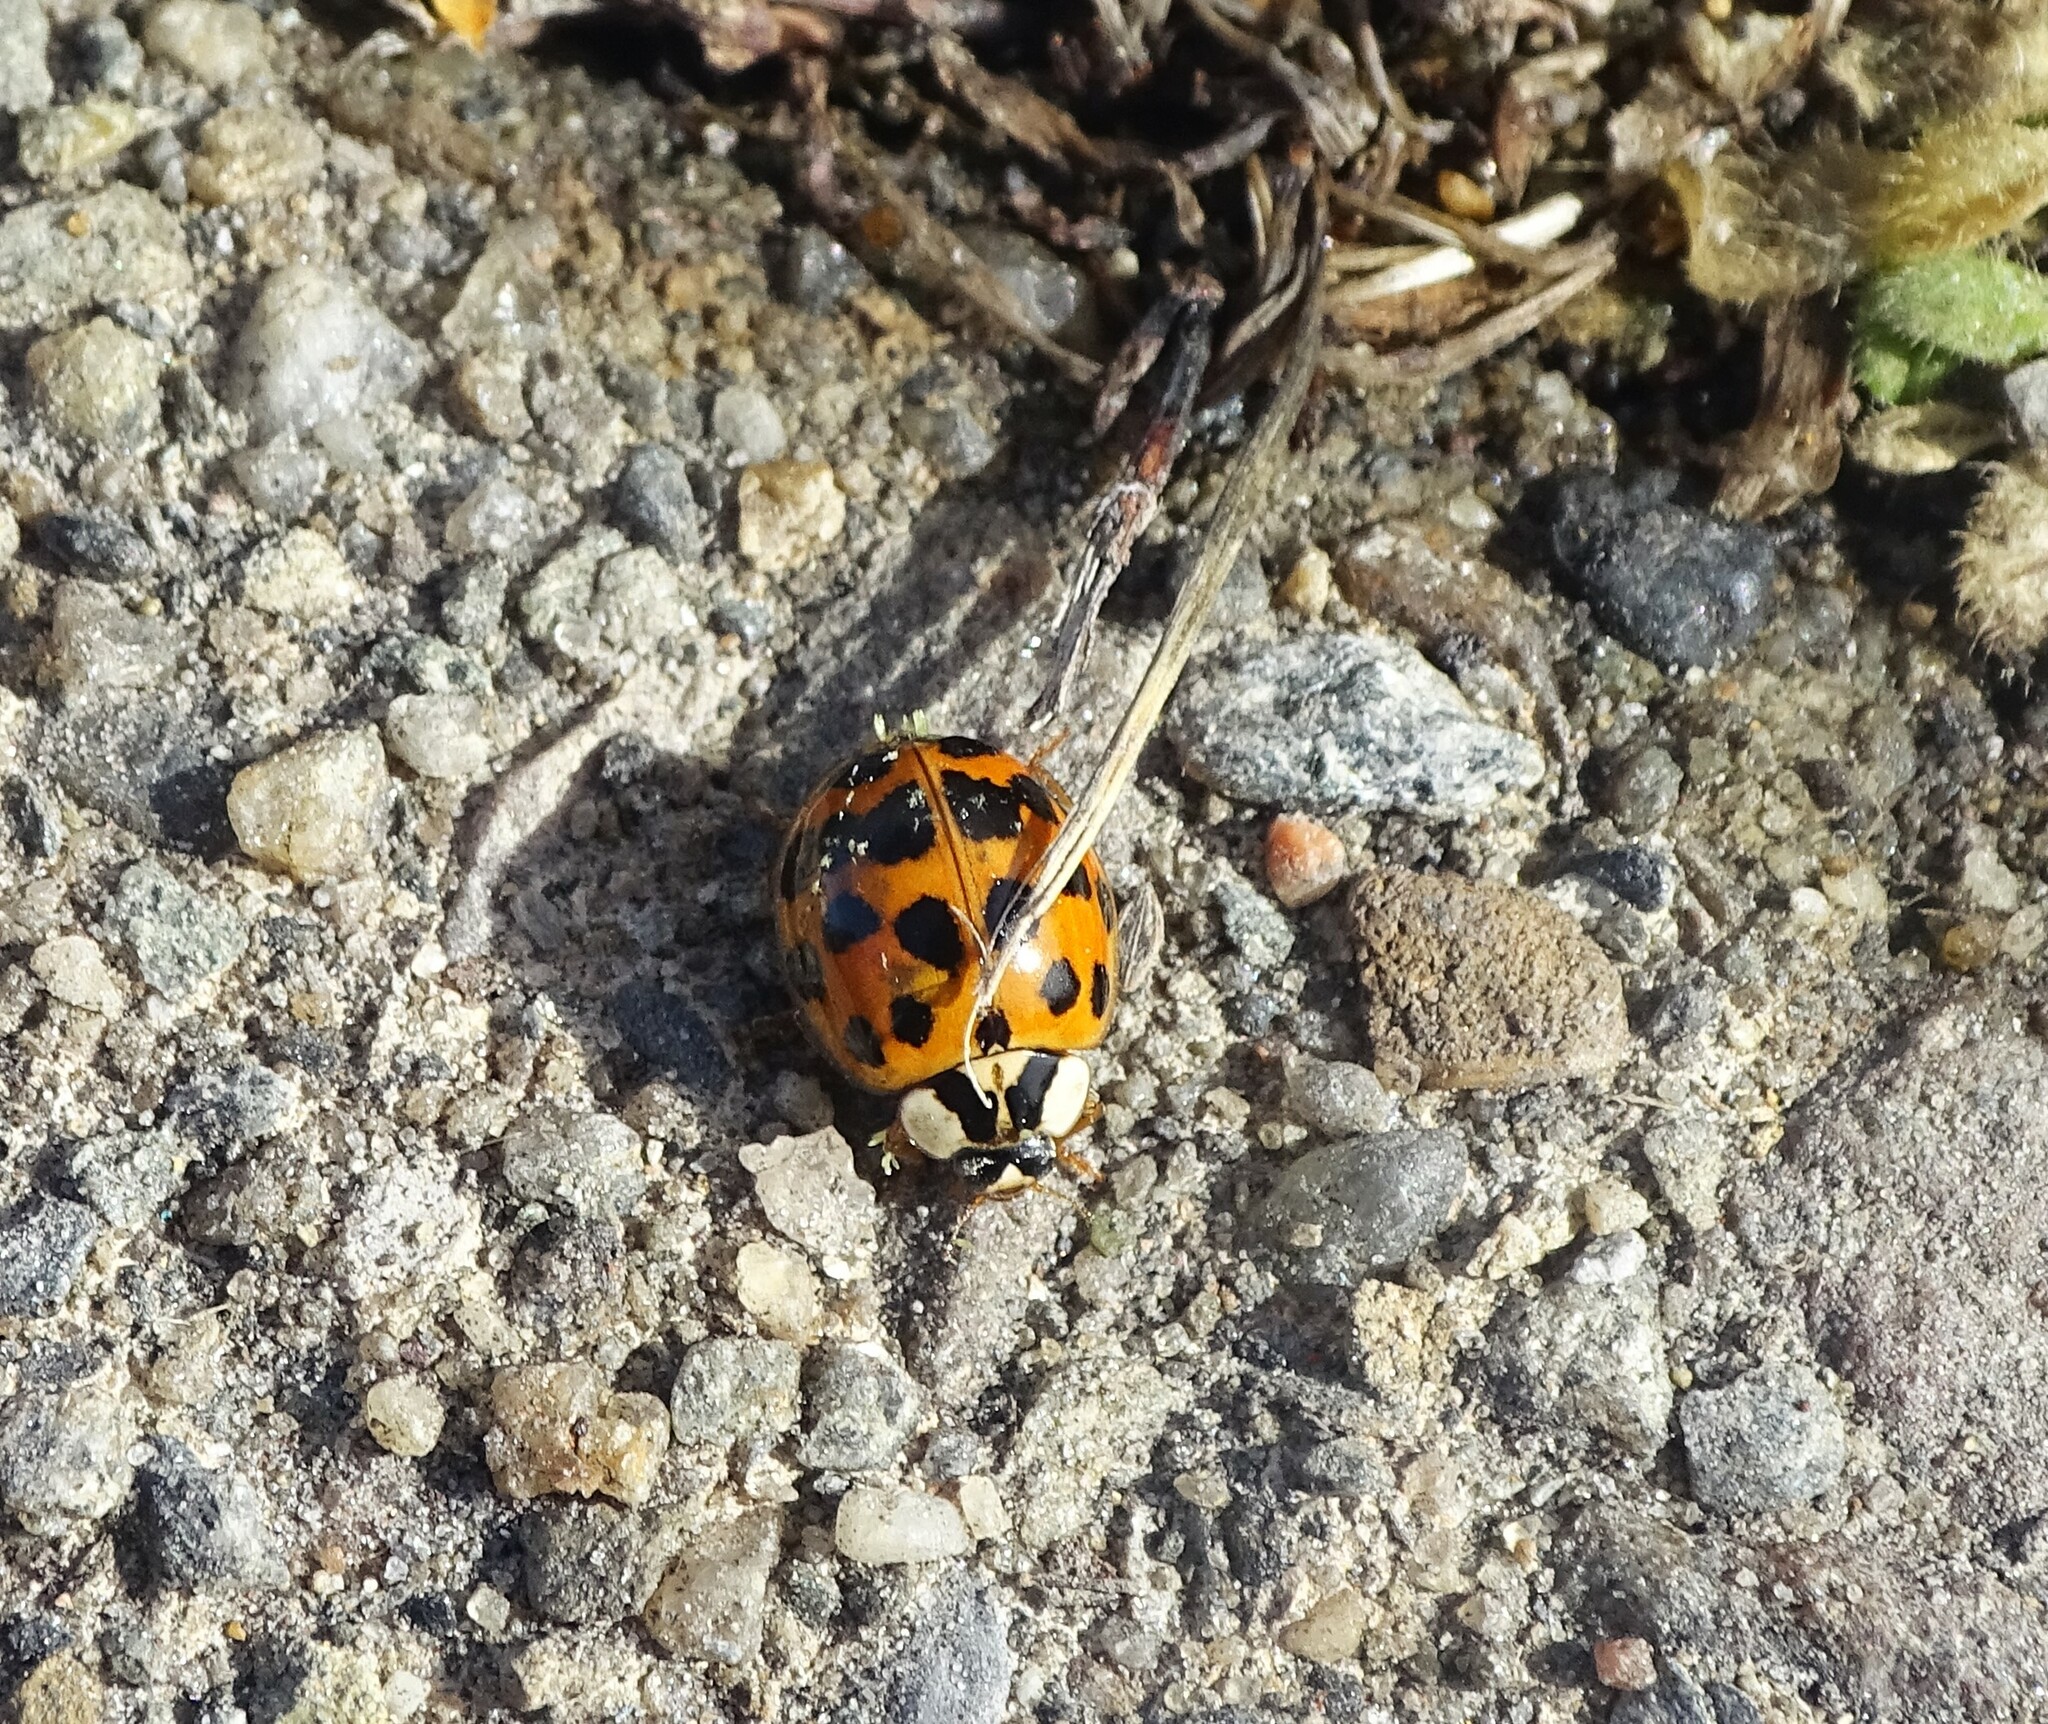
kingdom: Animalia
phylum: Arthropoda
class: Insecta
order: Coleoptera
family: Coccinellidae
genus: Harmonia
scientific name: Harmonia axyridis
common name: Harlequin ladybird
